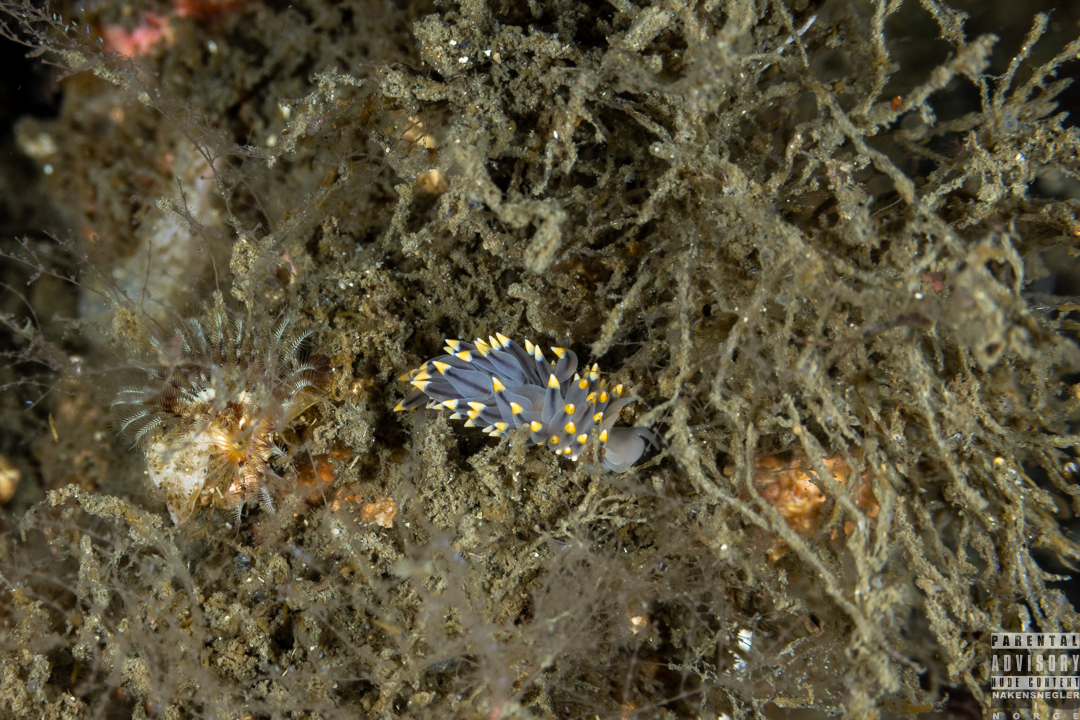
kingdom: Animalia
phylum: Mollusca
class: Gastropoda
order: Nudibranchia
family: Eubranchidae
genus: Eubranchus
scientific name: Eubranchus tricolor
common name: Painted balloon aeolis
